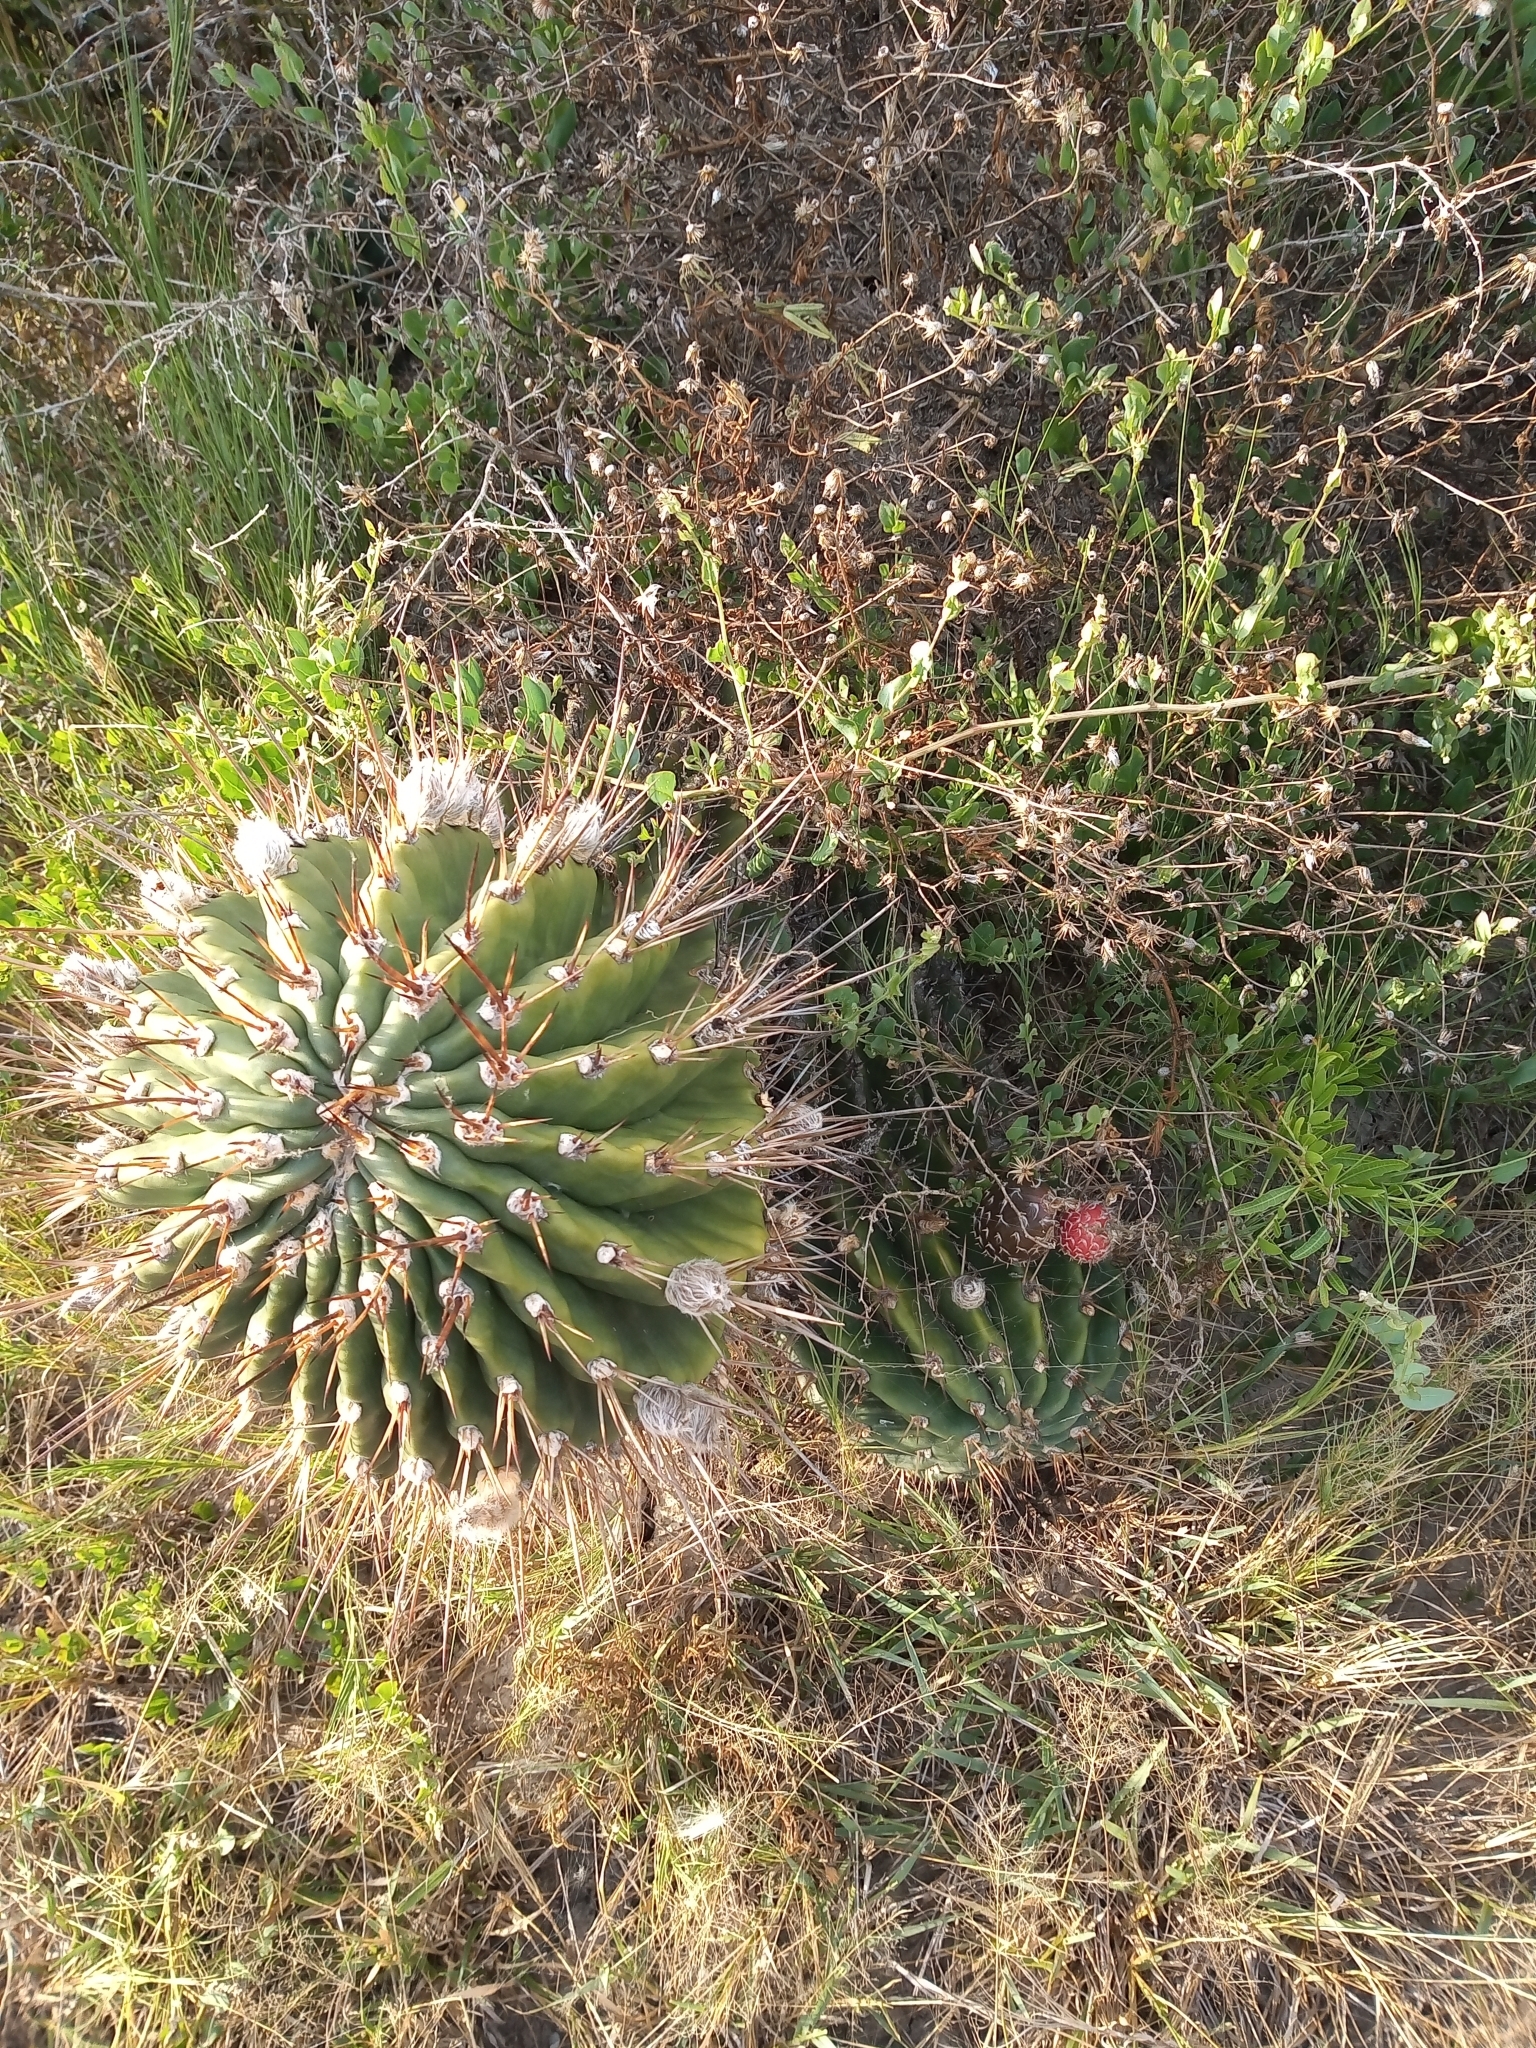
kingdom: Plantae
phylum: Tracheophyta
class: Magnoliopsida
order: Caryophyllales
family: Cactaceae
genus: Echinopsis
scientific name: Echinopsis oxygona
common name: Red easter-lily cactus
